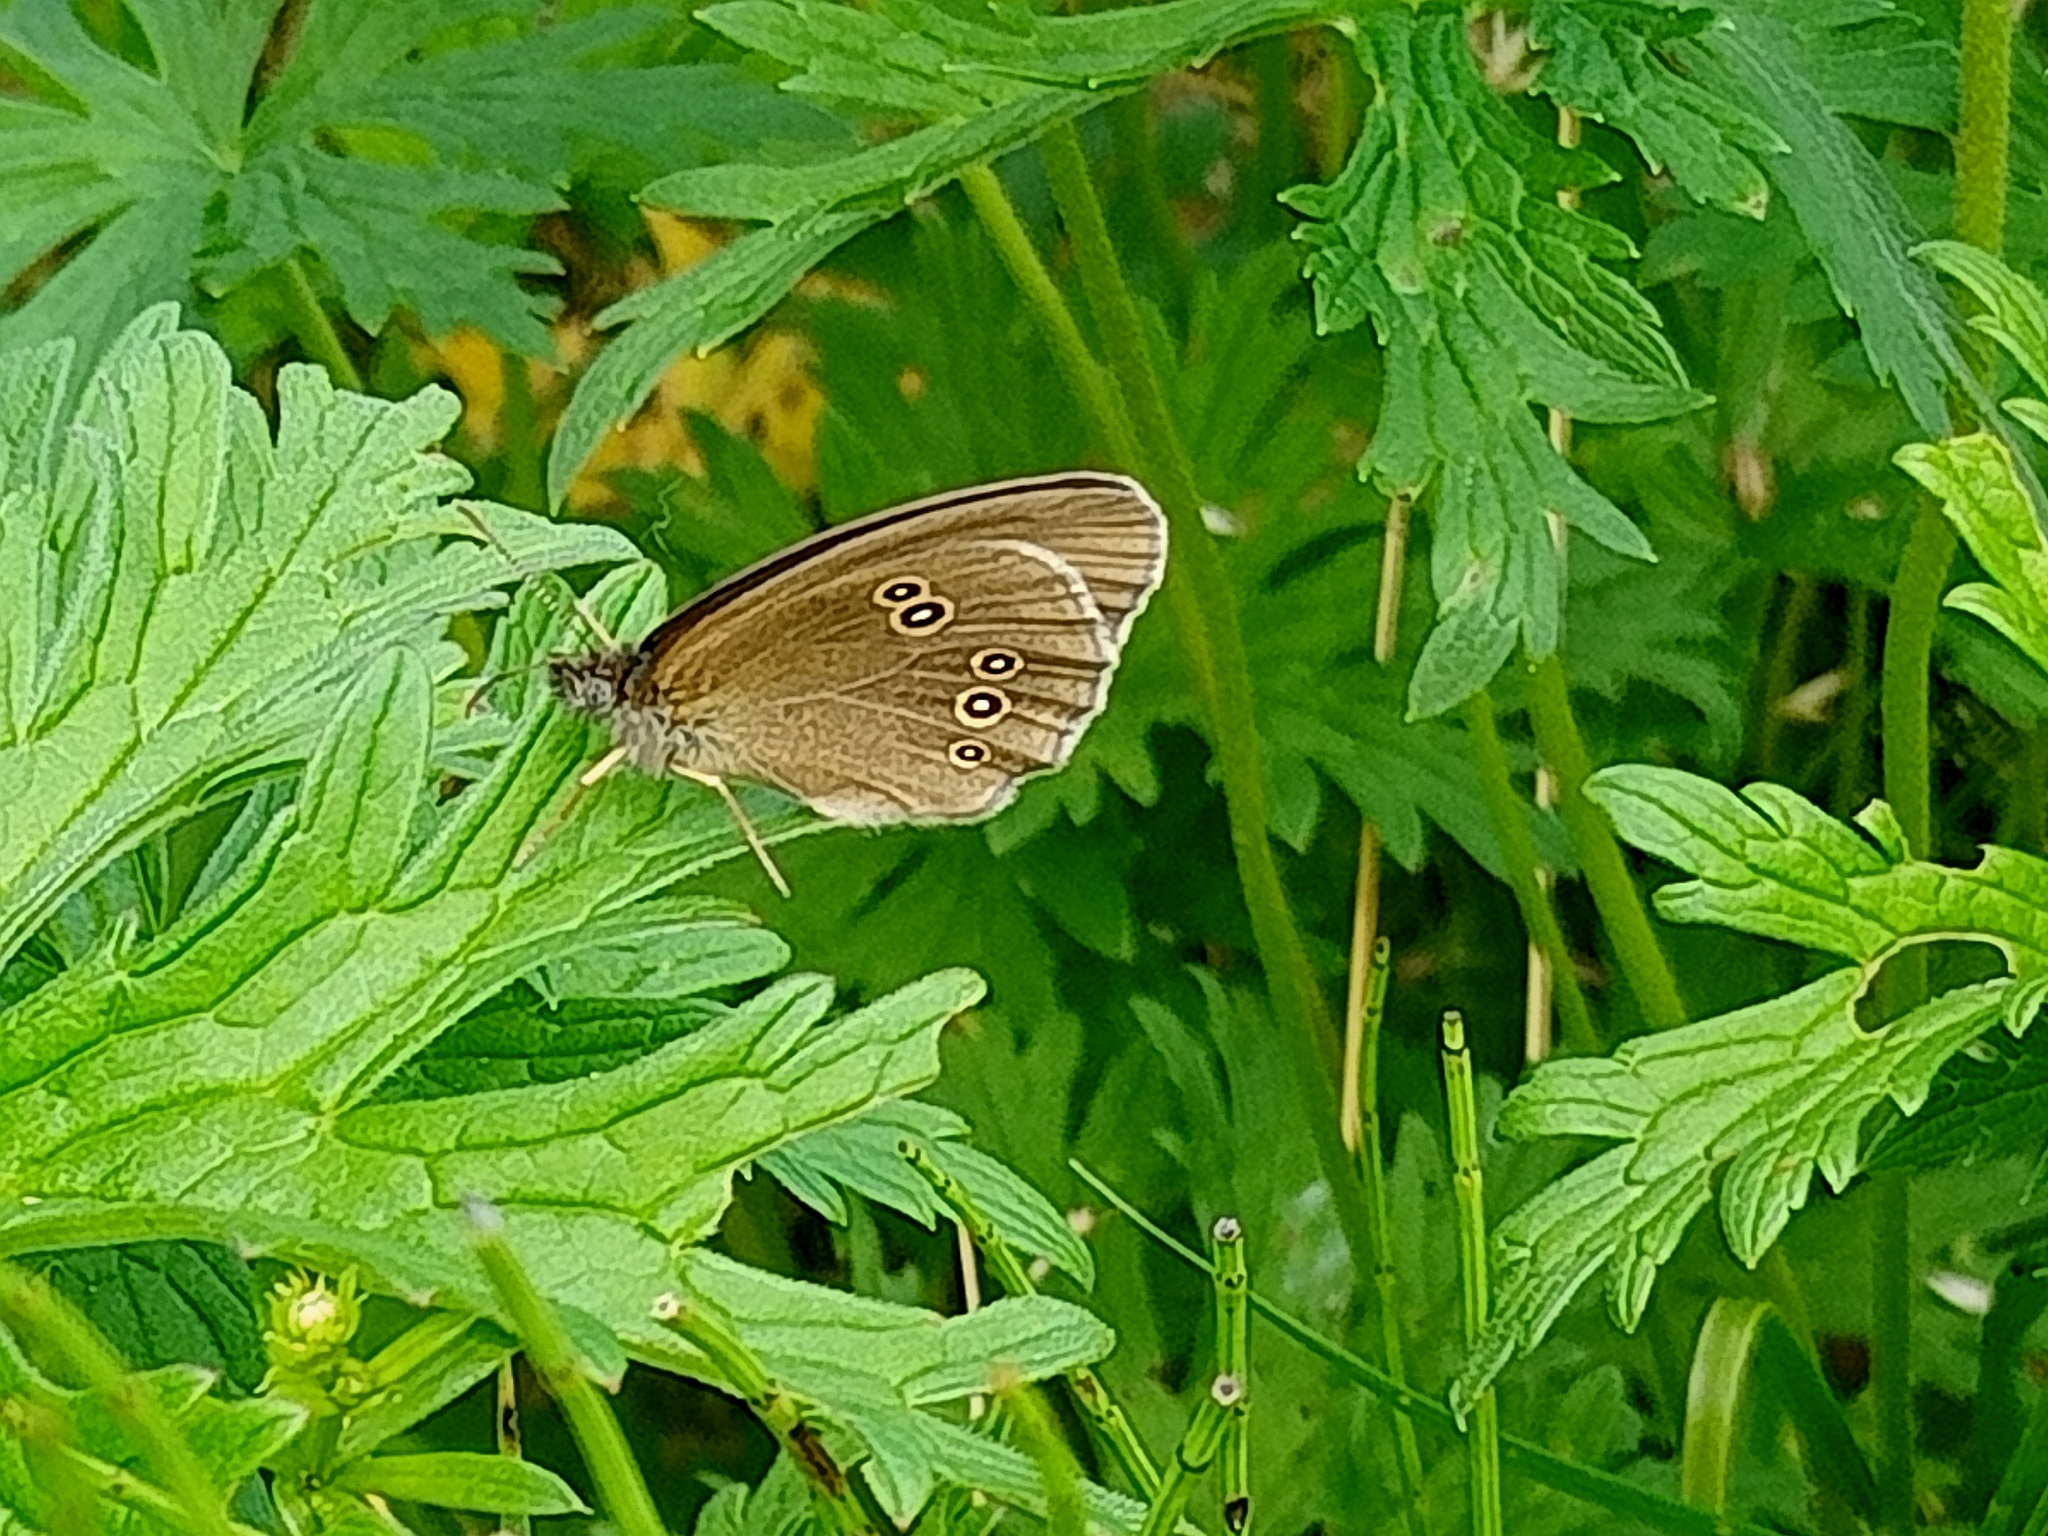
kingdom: Animalia
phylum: Arthropoda
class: Insecta
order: Lepidoptera
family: Nymphalidae
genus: Aphantopus
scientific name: Aphantopus hyperantus
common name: Ringlet
